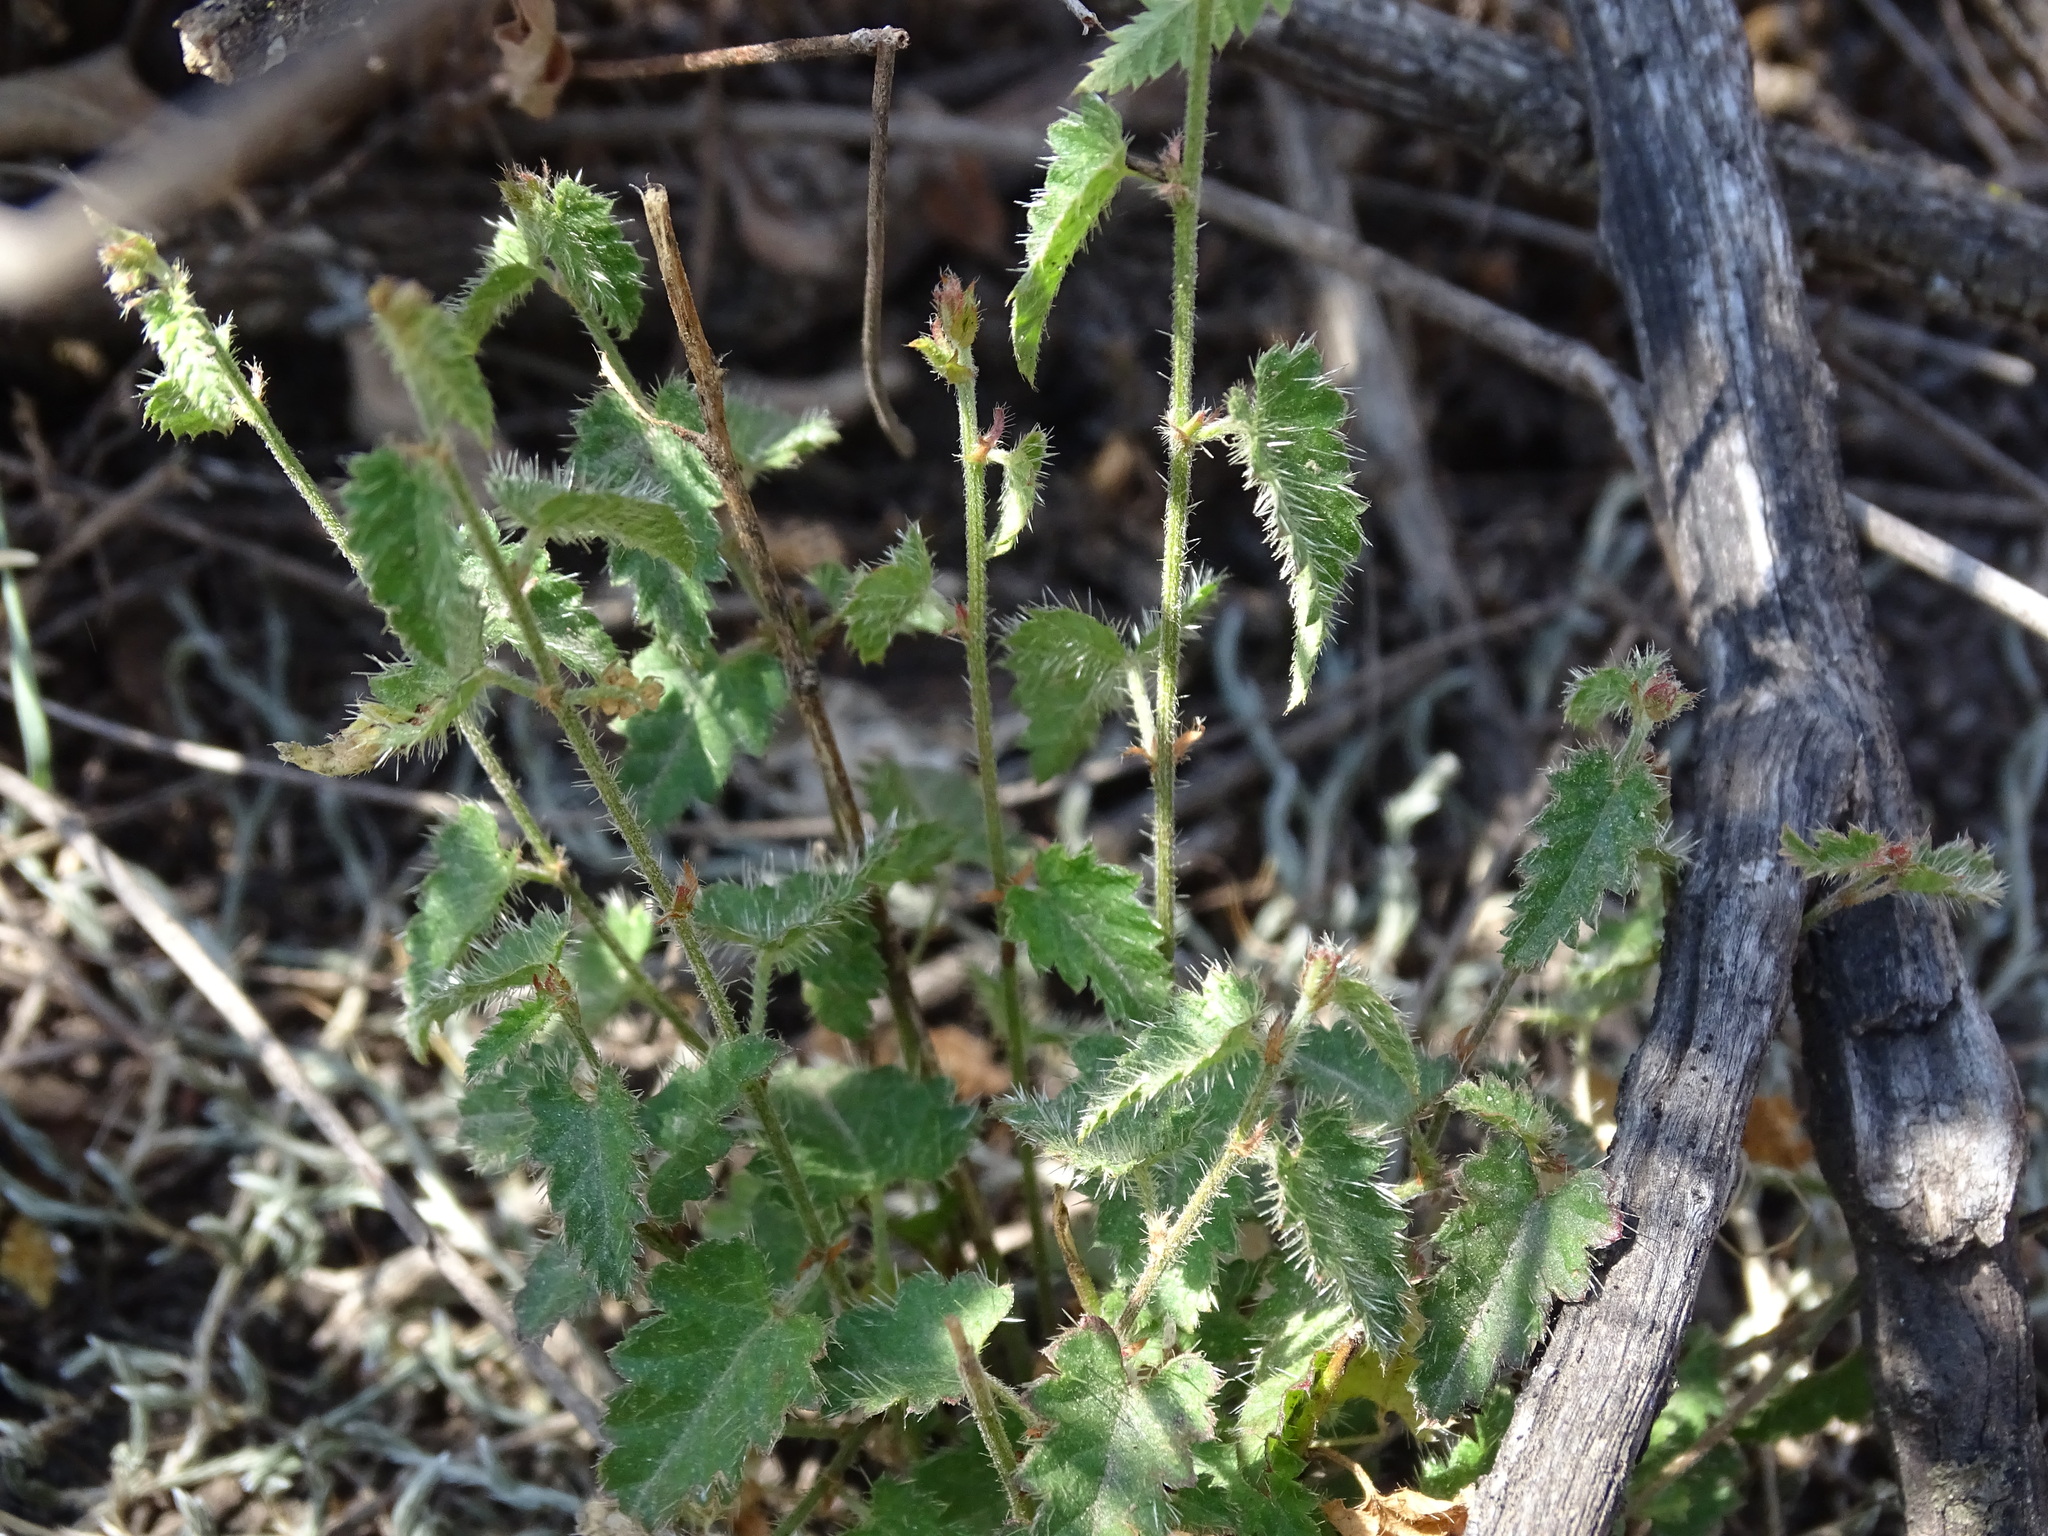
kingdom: Plantae
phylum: Tracheophyta
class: Magnoliopsida
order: Malpighiales
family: Euphorbiaceae
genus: Tragia
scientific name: Tragia nepetifolia
